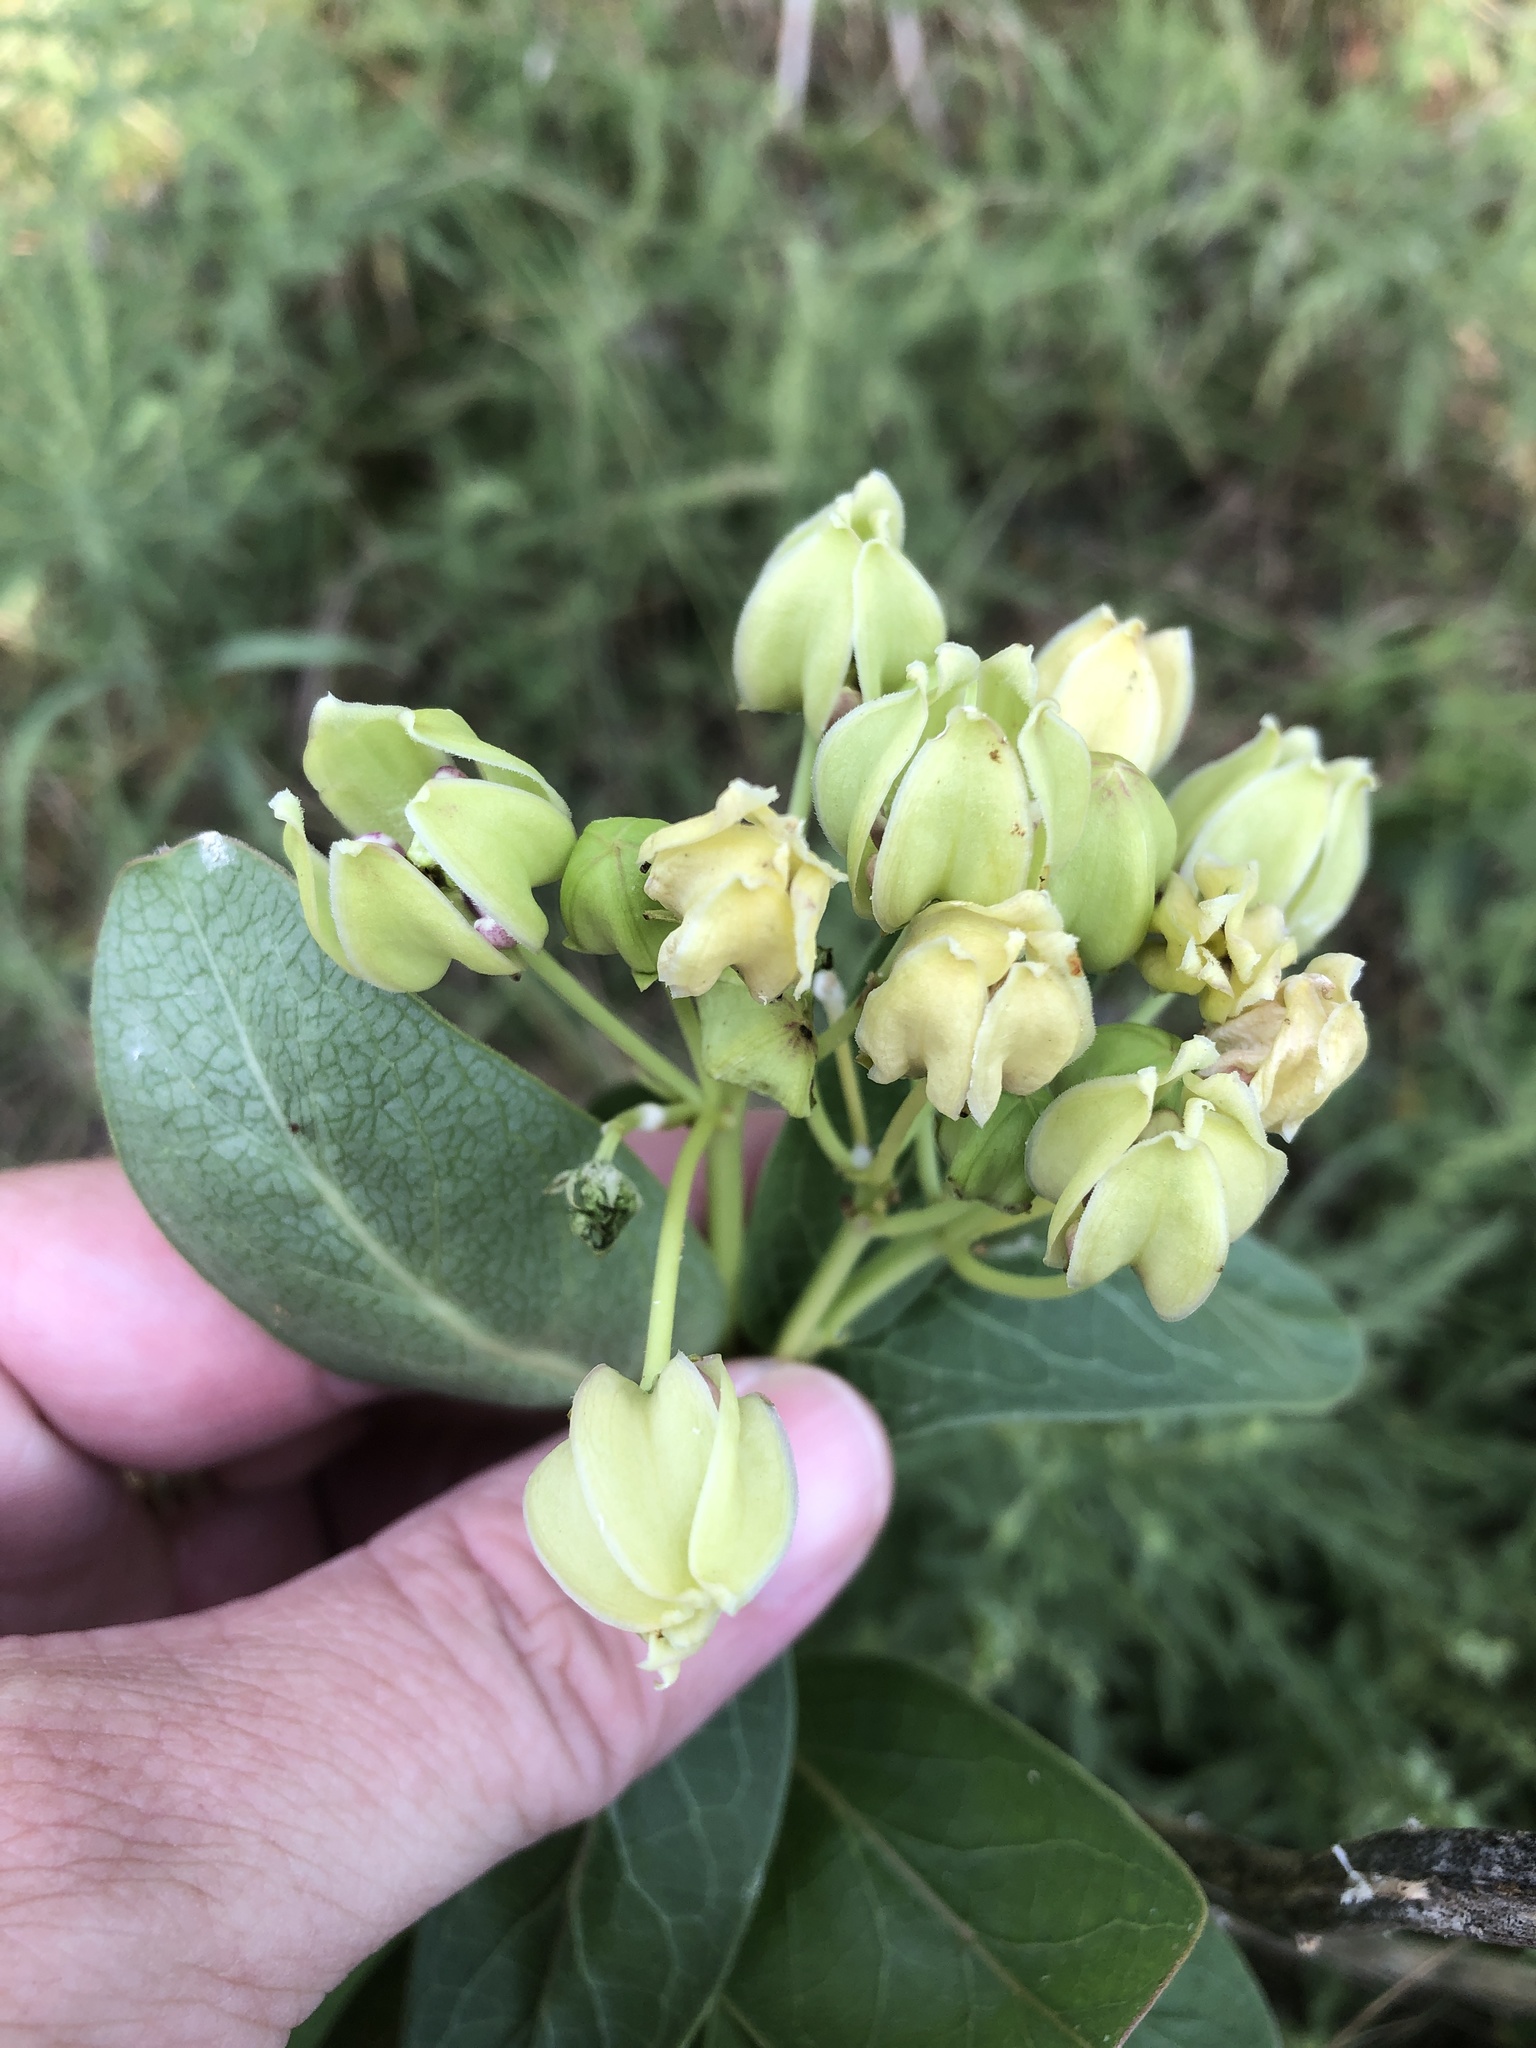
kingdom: Plantae
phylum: Tracheophyta
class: Magnoliopsida
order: Gentianales
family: Apocynaceae
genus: Asclepias
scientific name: Asclepias viridis
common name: Antelope-horns
